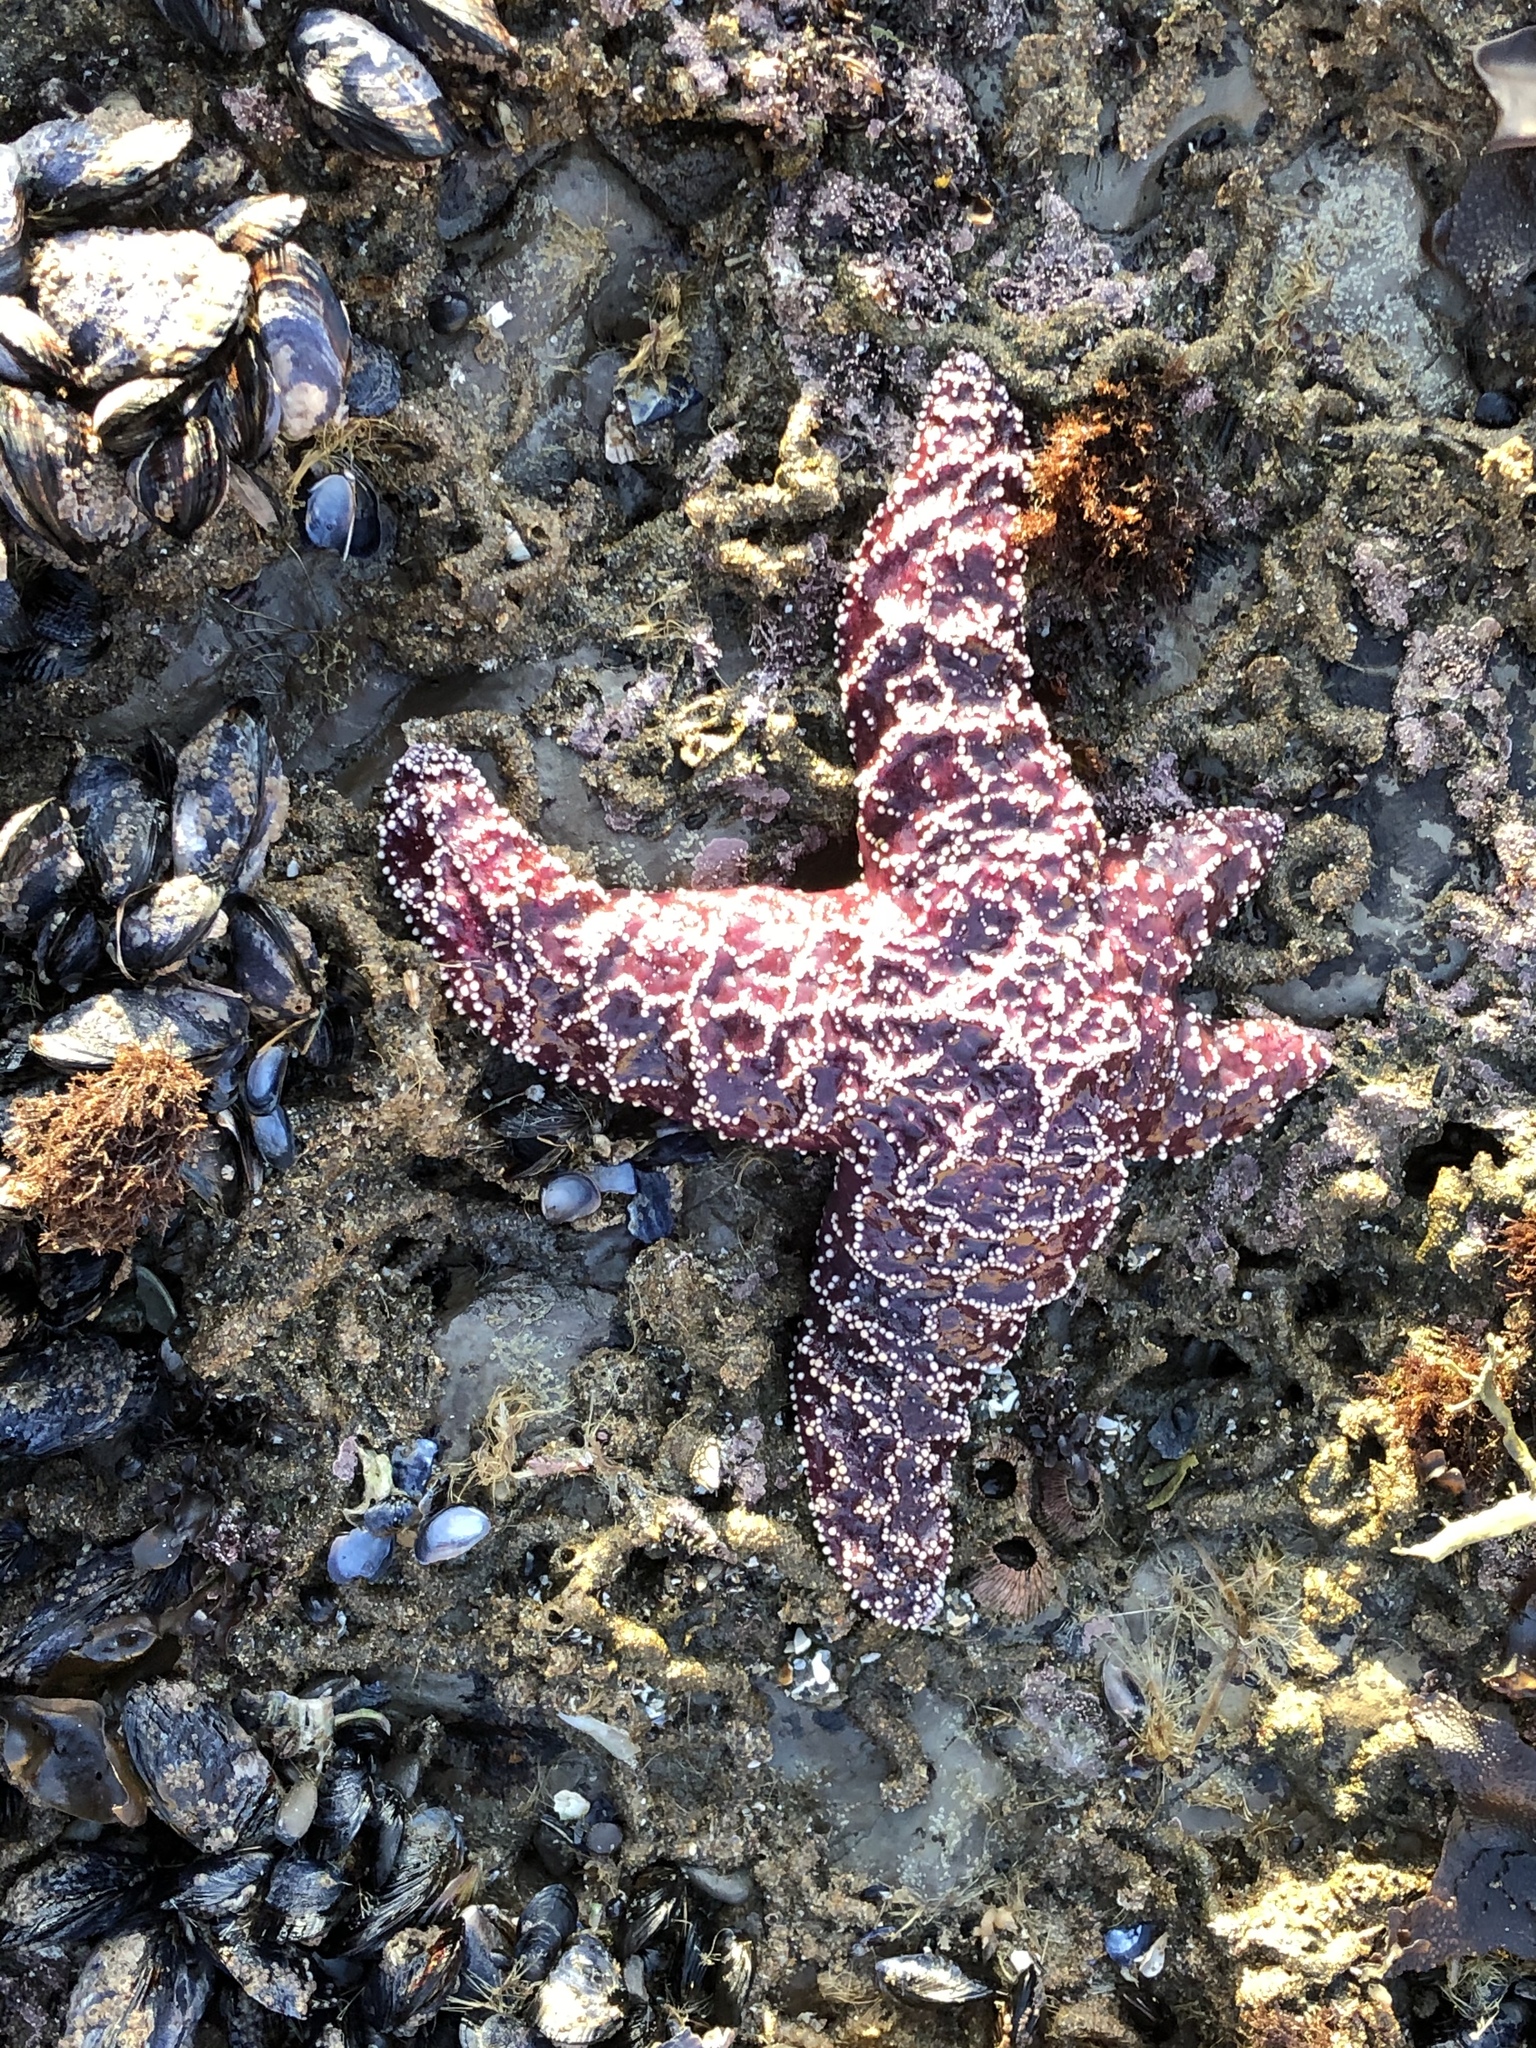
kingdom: Animalia
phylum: Echinodermata
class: Asteroidea
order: Forcipulatida
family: Asteriidae
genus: Pisaster
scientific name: Pisaster ochraceus
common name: Ochre stars
